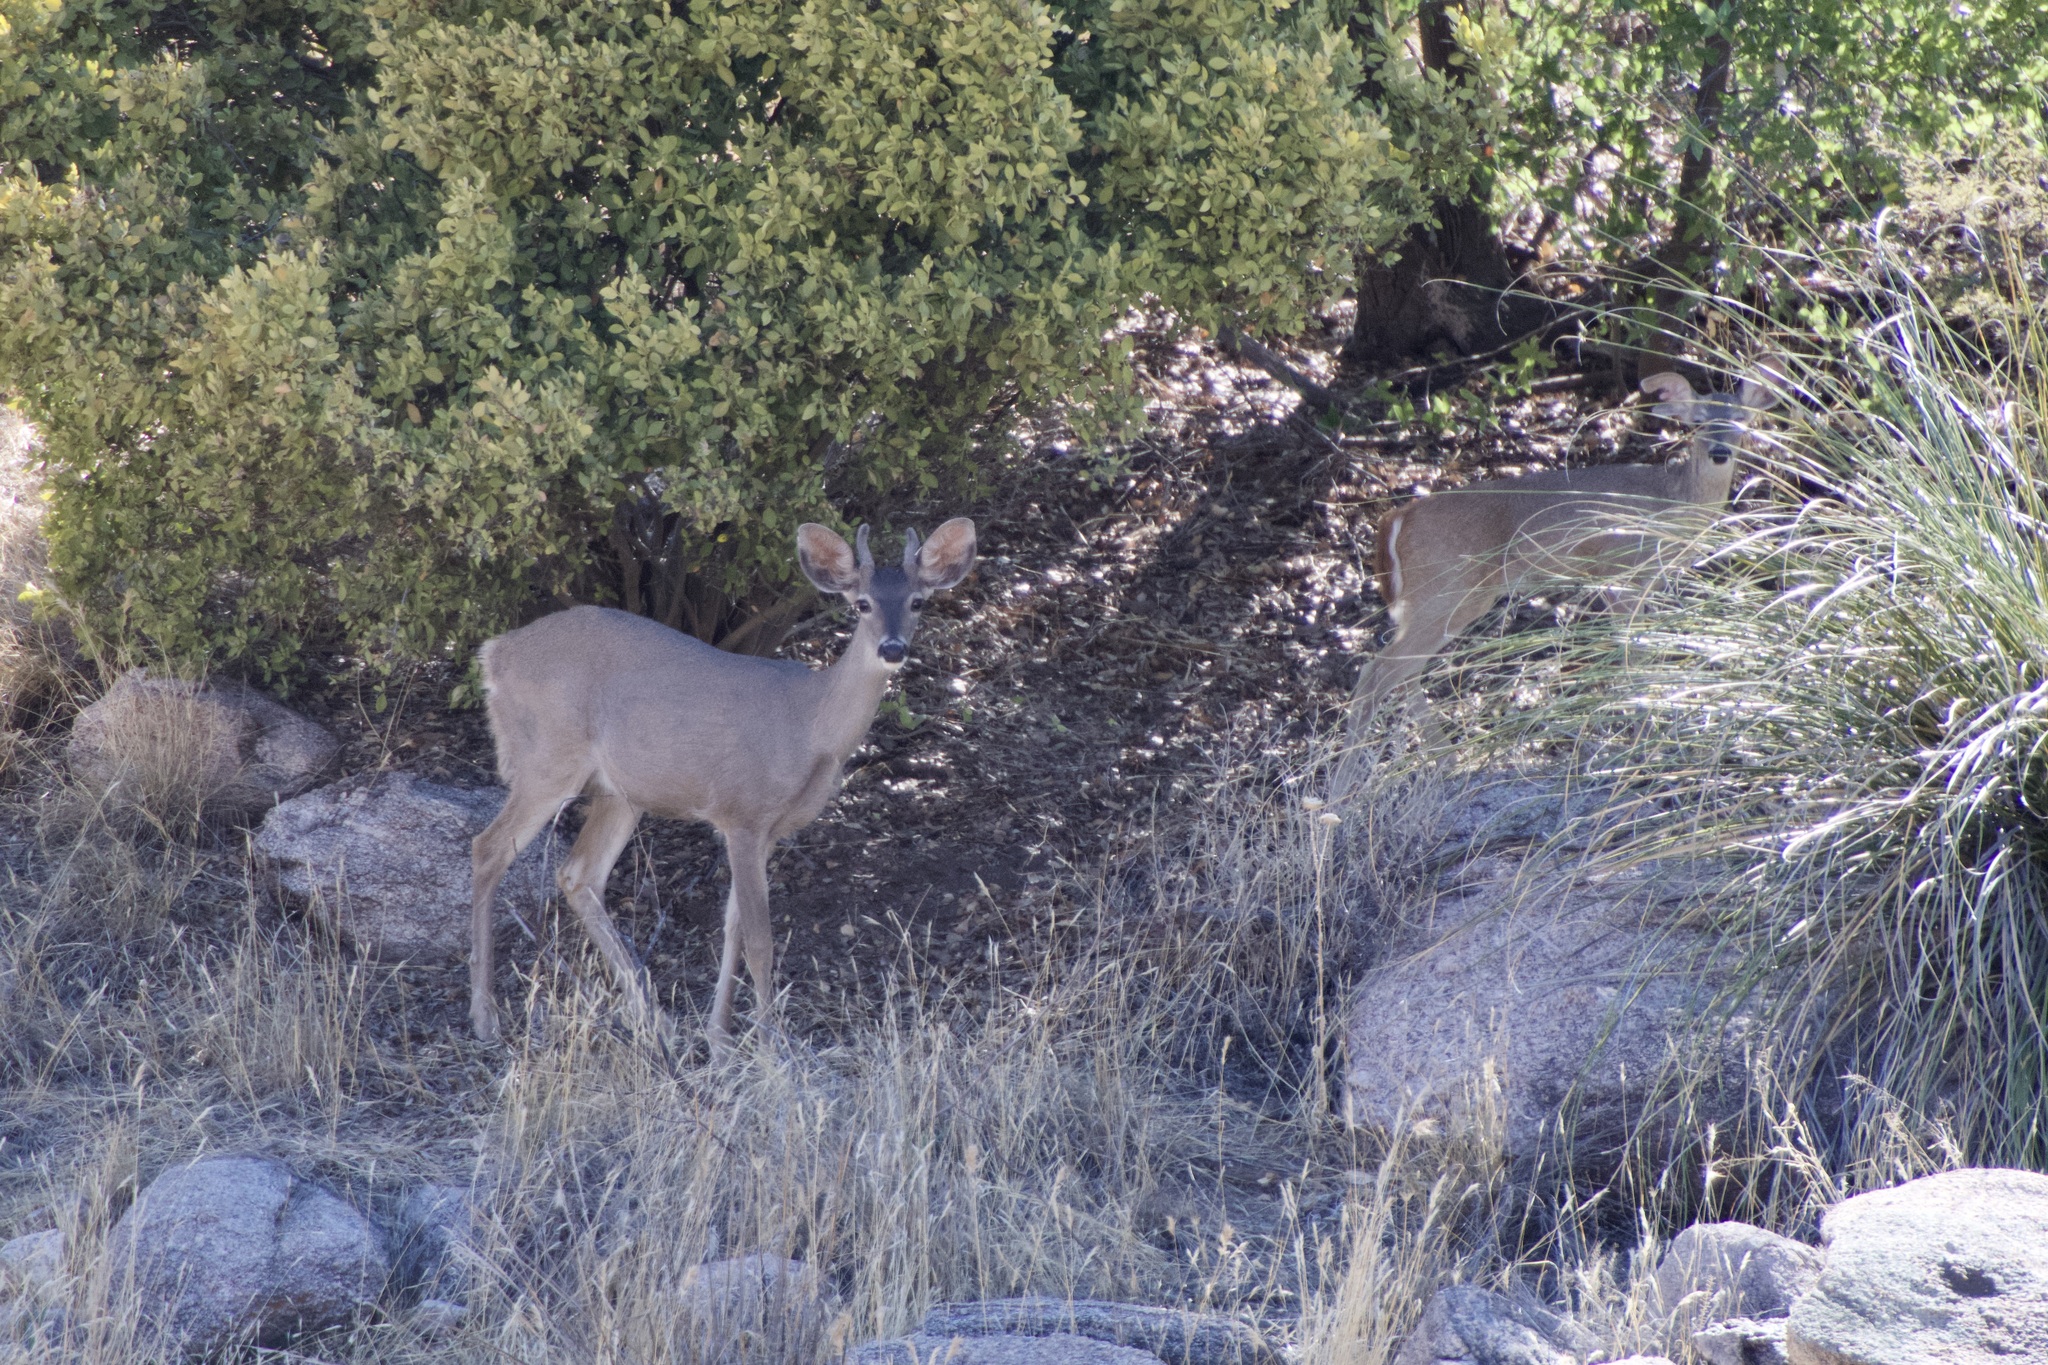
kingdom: Animalia
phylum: Chordata
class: Mammalia
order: Artiodactyla
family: Cervidae
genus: Odocoileus
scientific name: Odocoileus virginianus
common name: White-tailed deer
